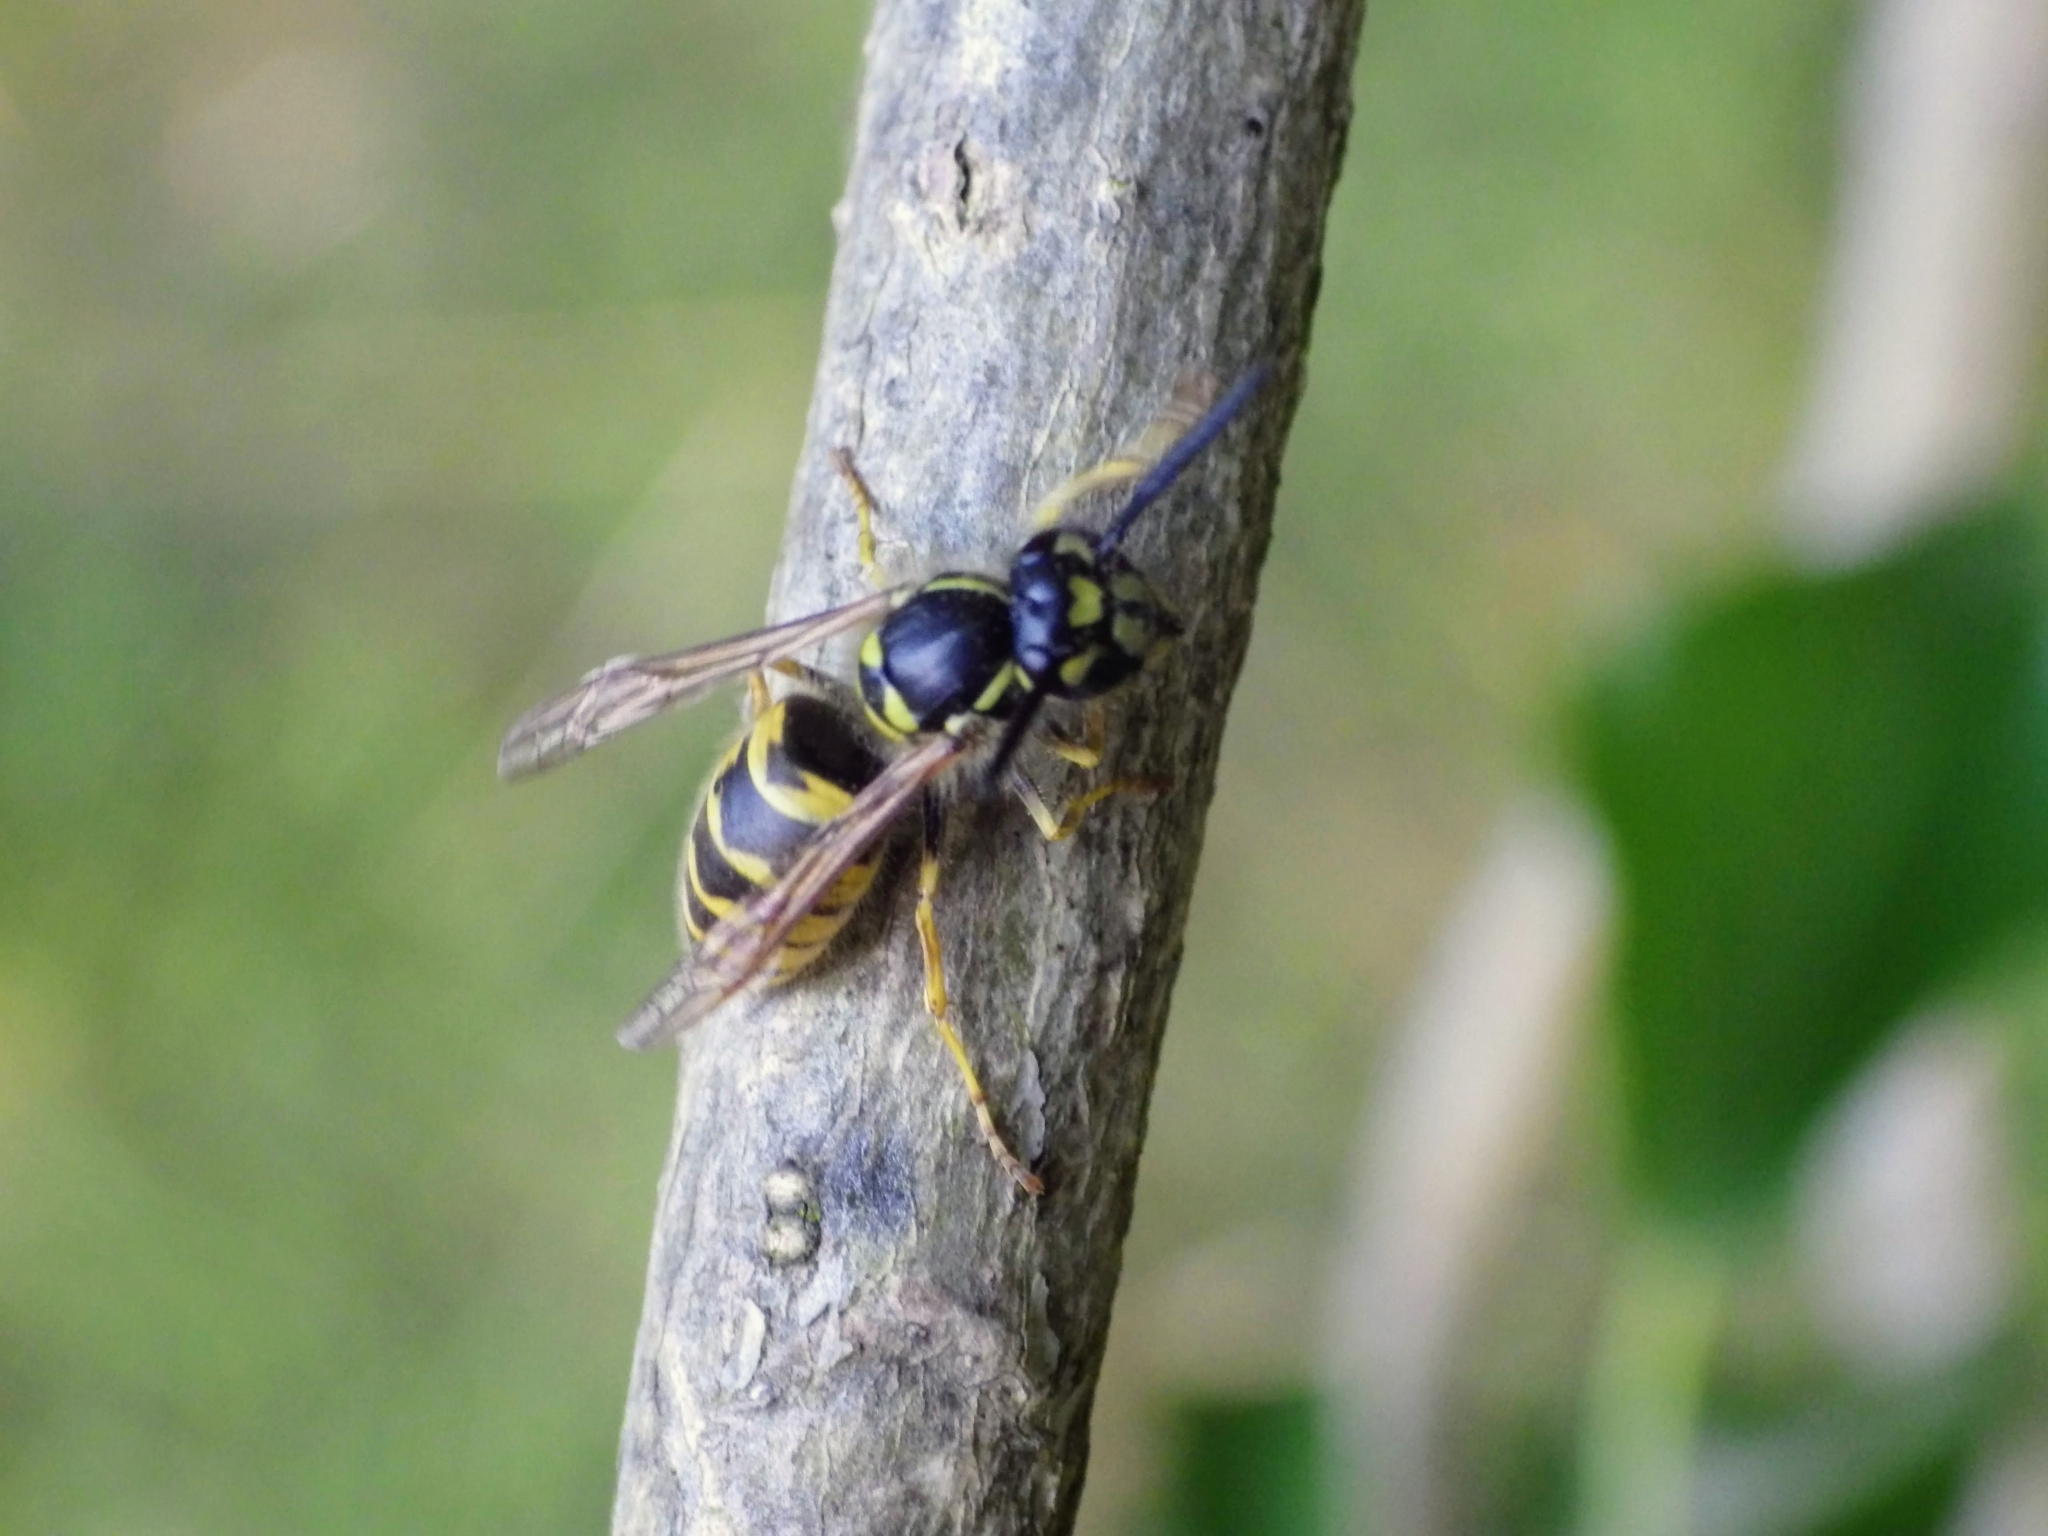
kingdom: Animalia
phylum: Arthropoda
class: Insecta
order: Hymenoptera
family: Vespidae
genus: Vespula
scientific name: Vespula vulgaris
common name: Common wasp
